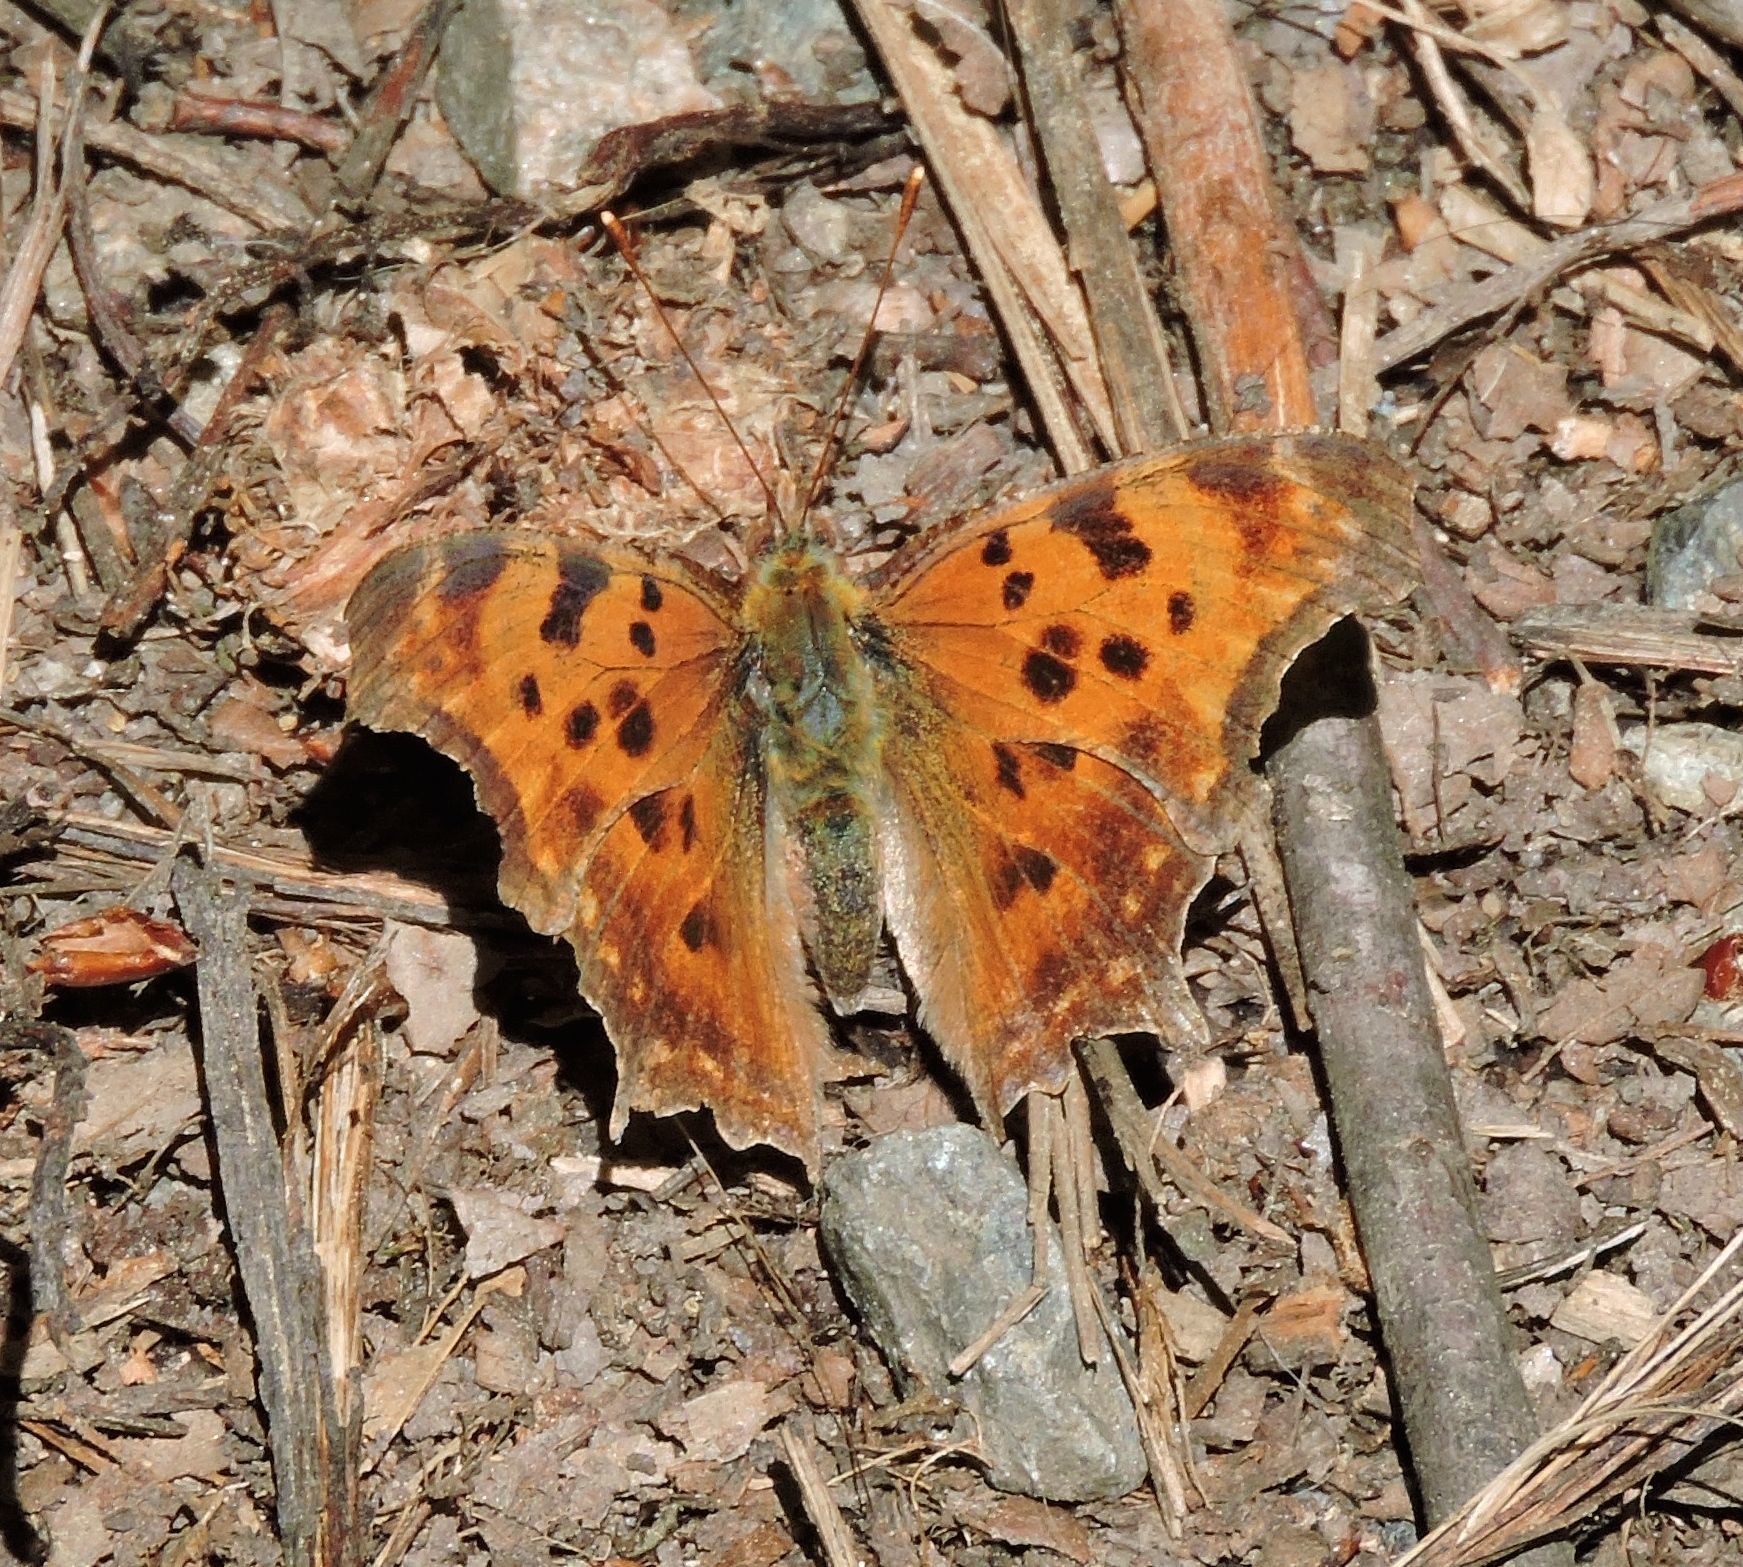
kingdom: Animalia
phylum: Arthropoda
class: Insecta
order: Lepidoptera
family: Nymphalidae
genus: Polygonia
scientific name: Polygonia comma
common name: Eastern comma
